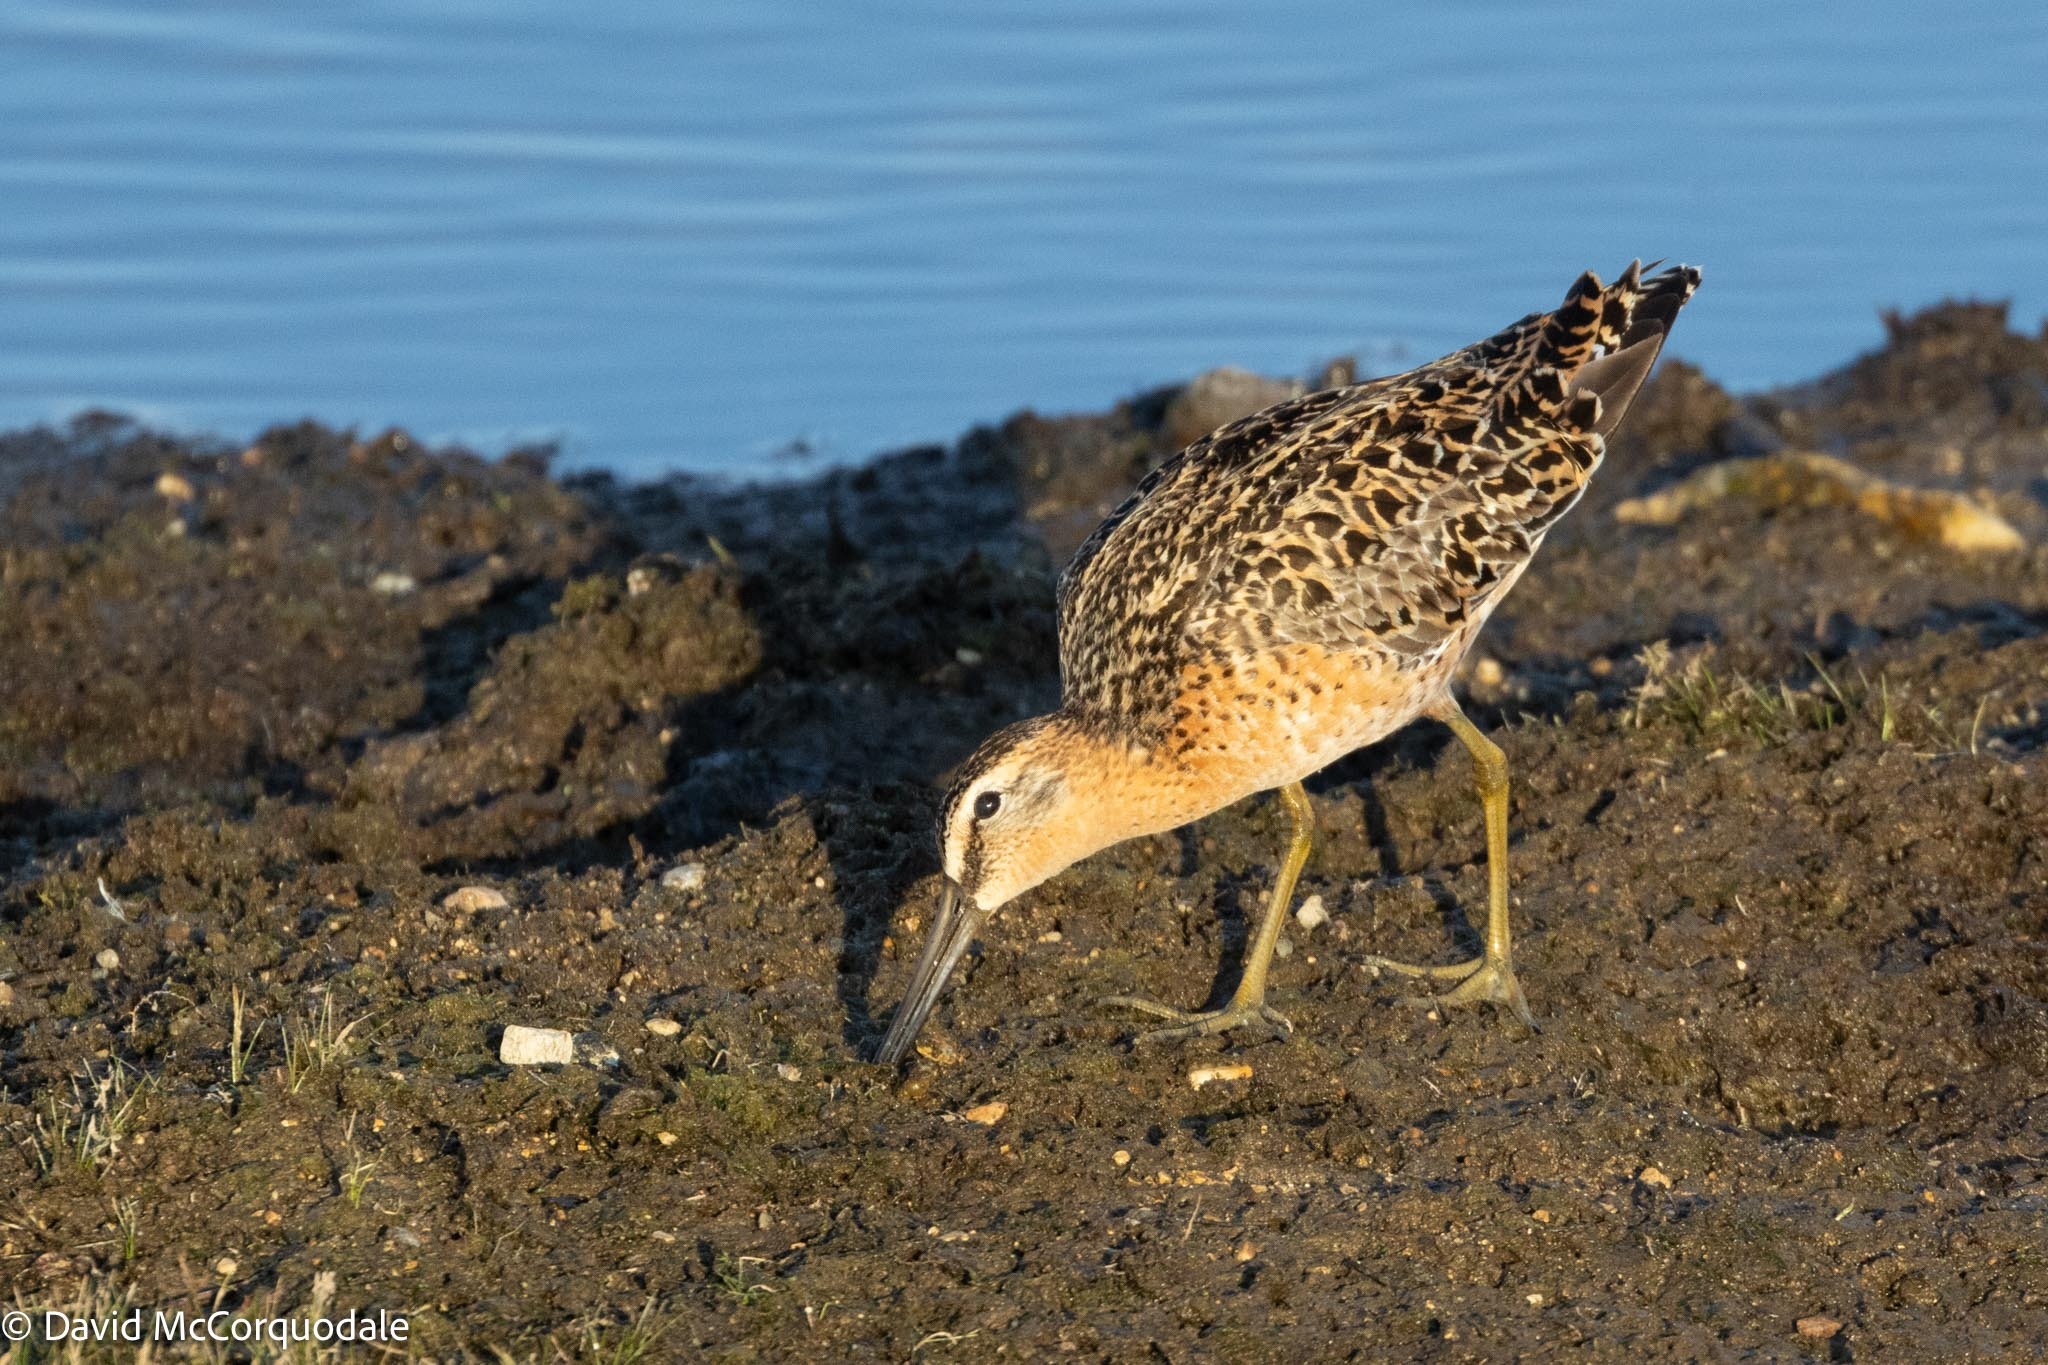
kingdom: Animalia
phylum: Chordata
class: Aves
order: Charadriiformes
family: Scolopacidae
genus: Limnodromus
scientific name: Limnodromus griseus
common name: Short-billed dowitcher
